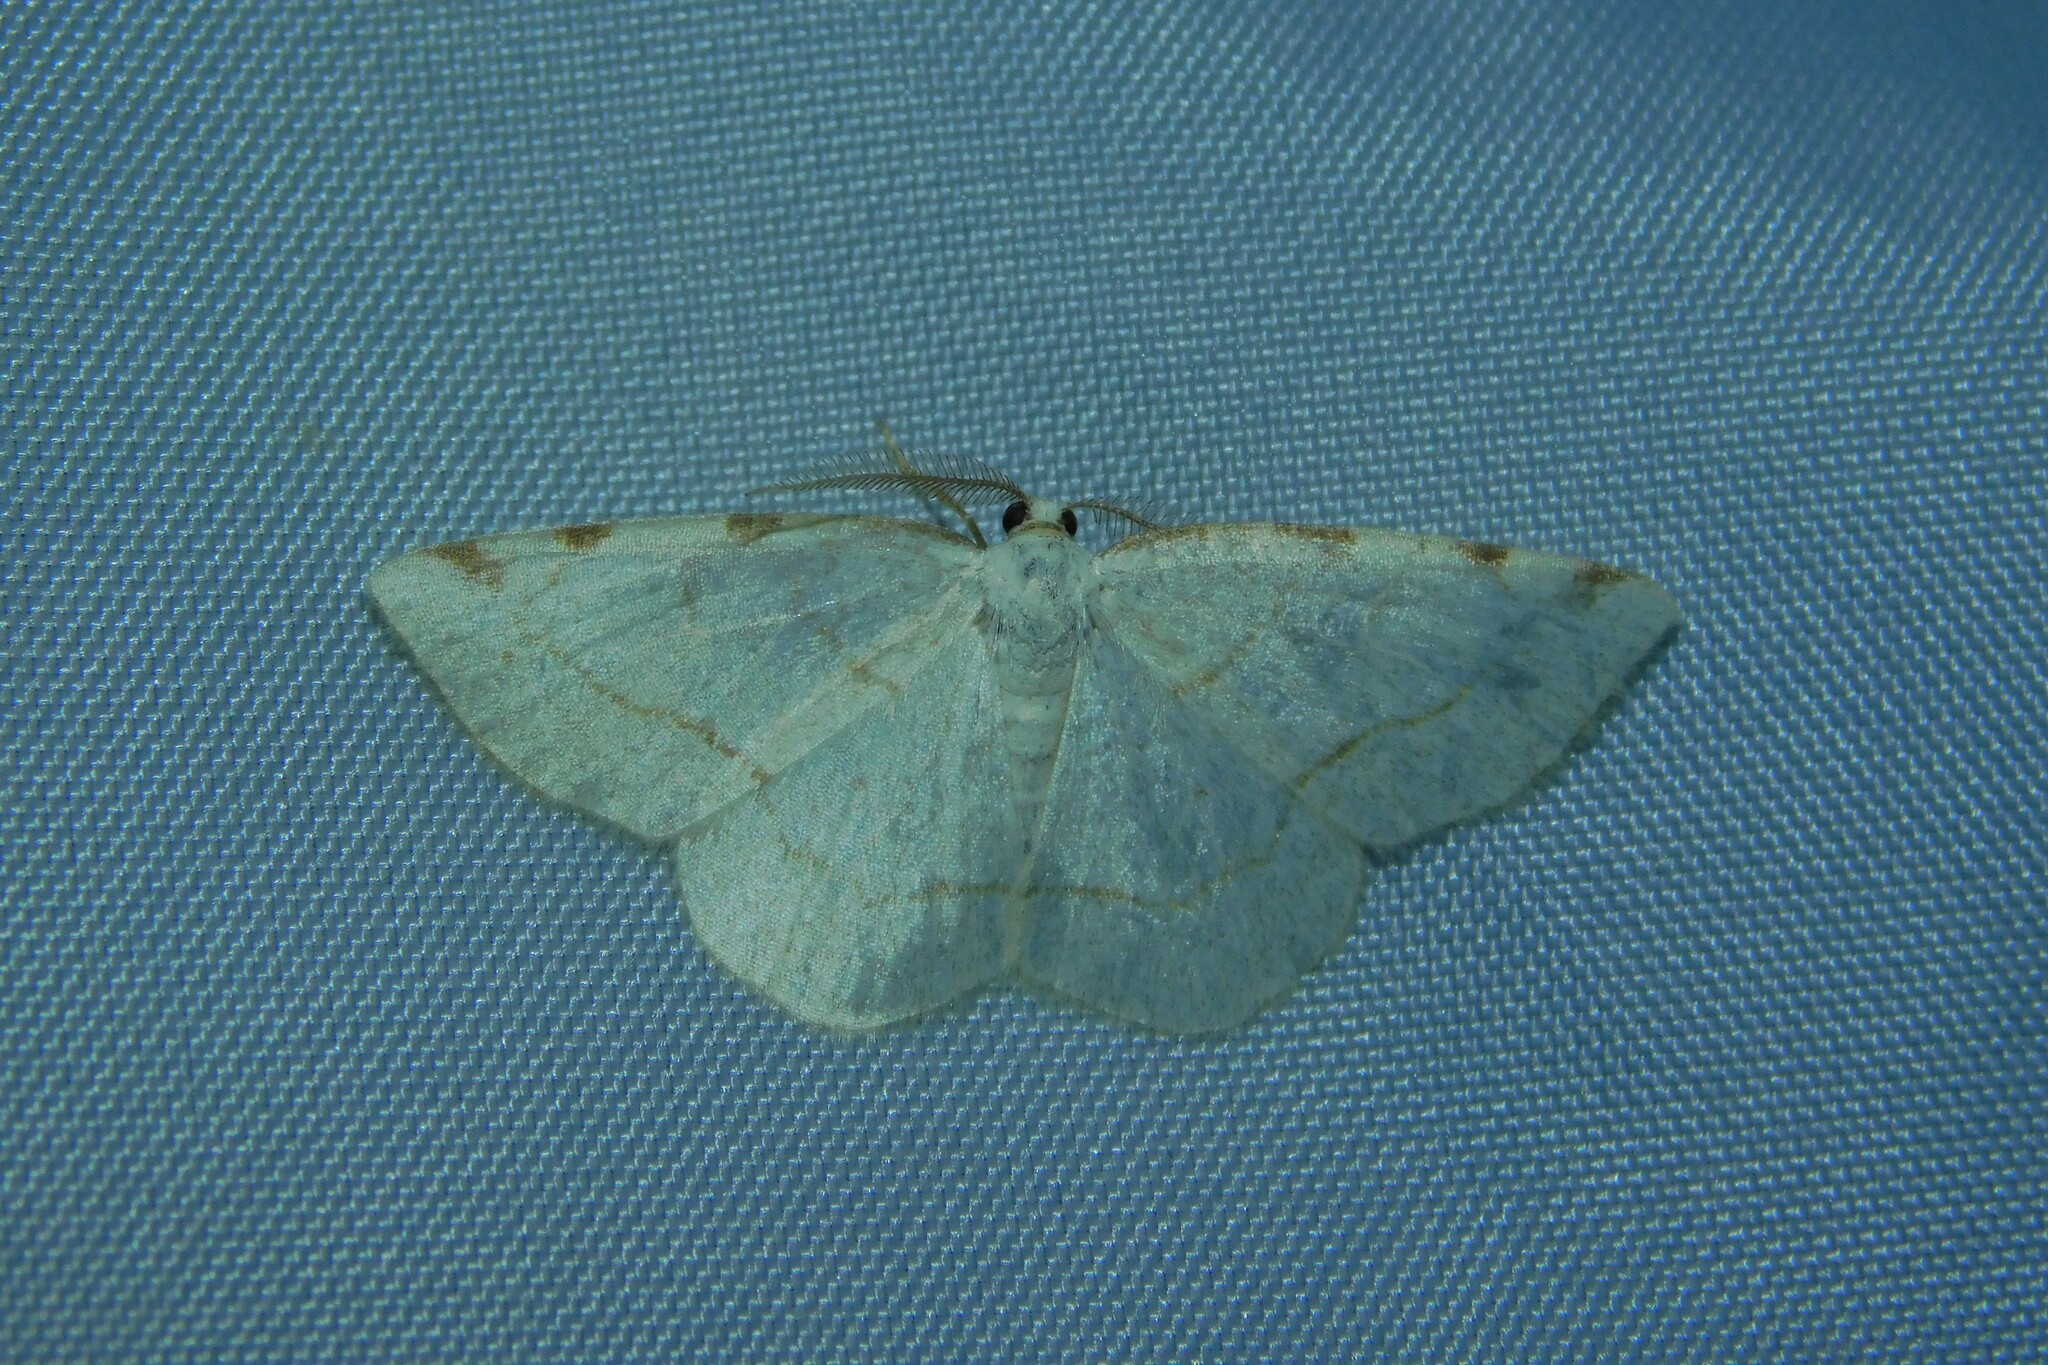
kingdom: Animalia
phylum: Arthropoda
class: Insecta
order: Lepidoptera
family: Geometridae
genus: Stegania
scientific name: Stegania trimaculata
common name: Dorset cream wave
